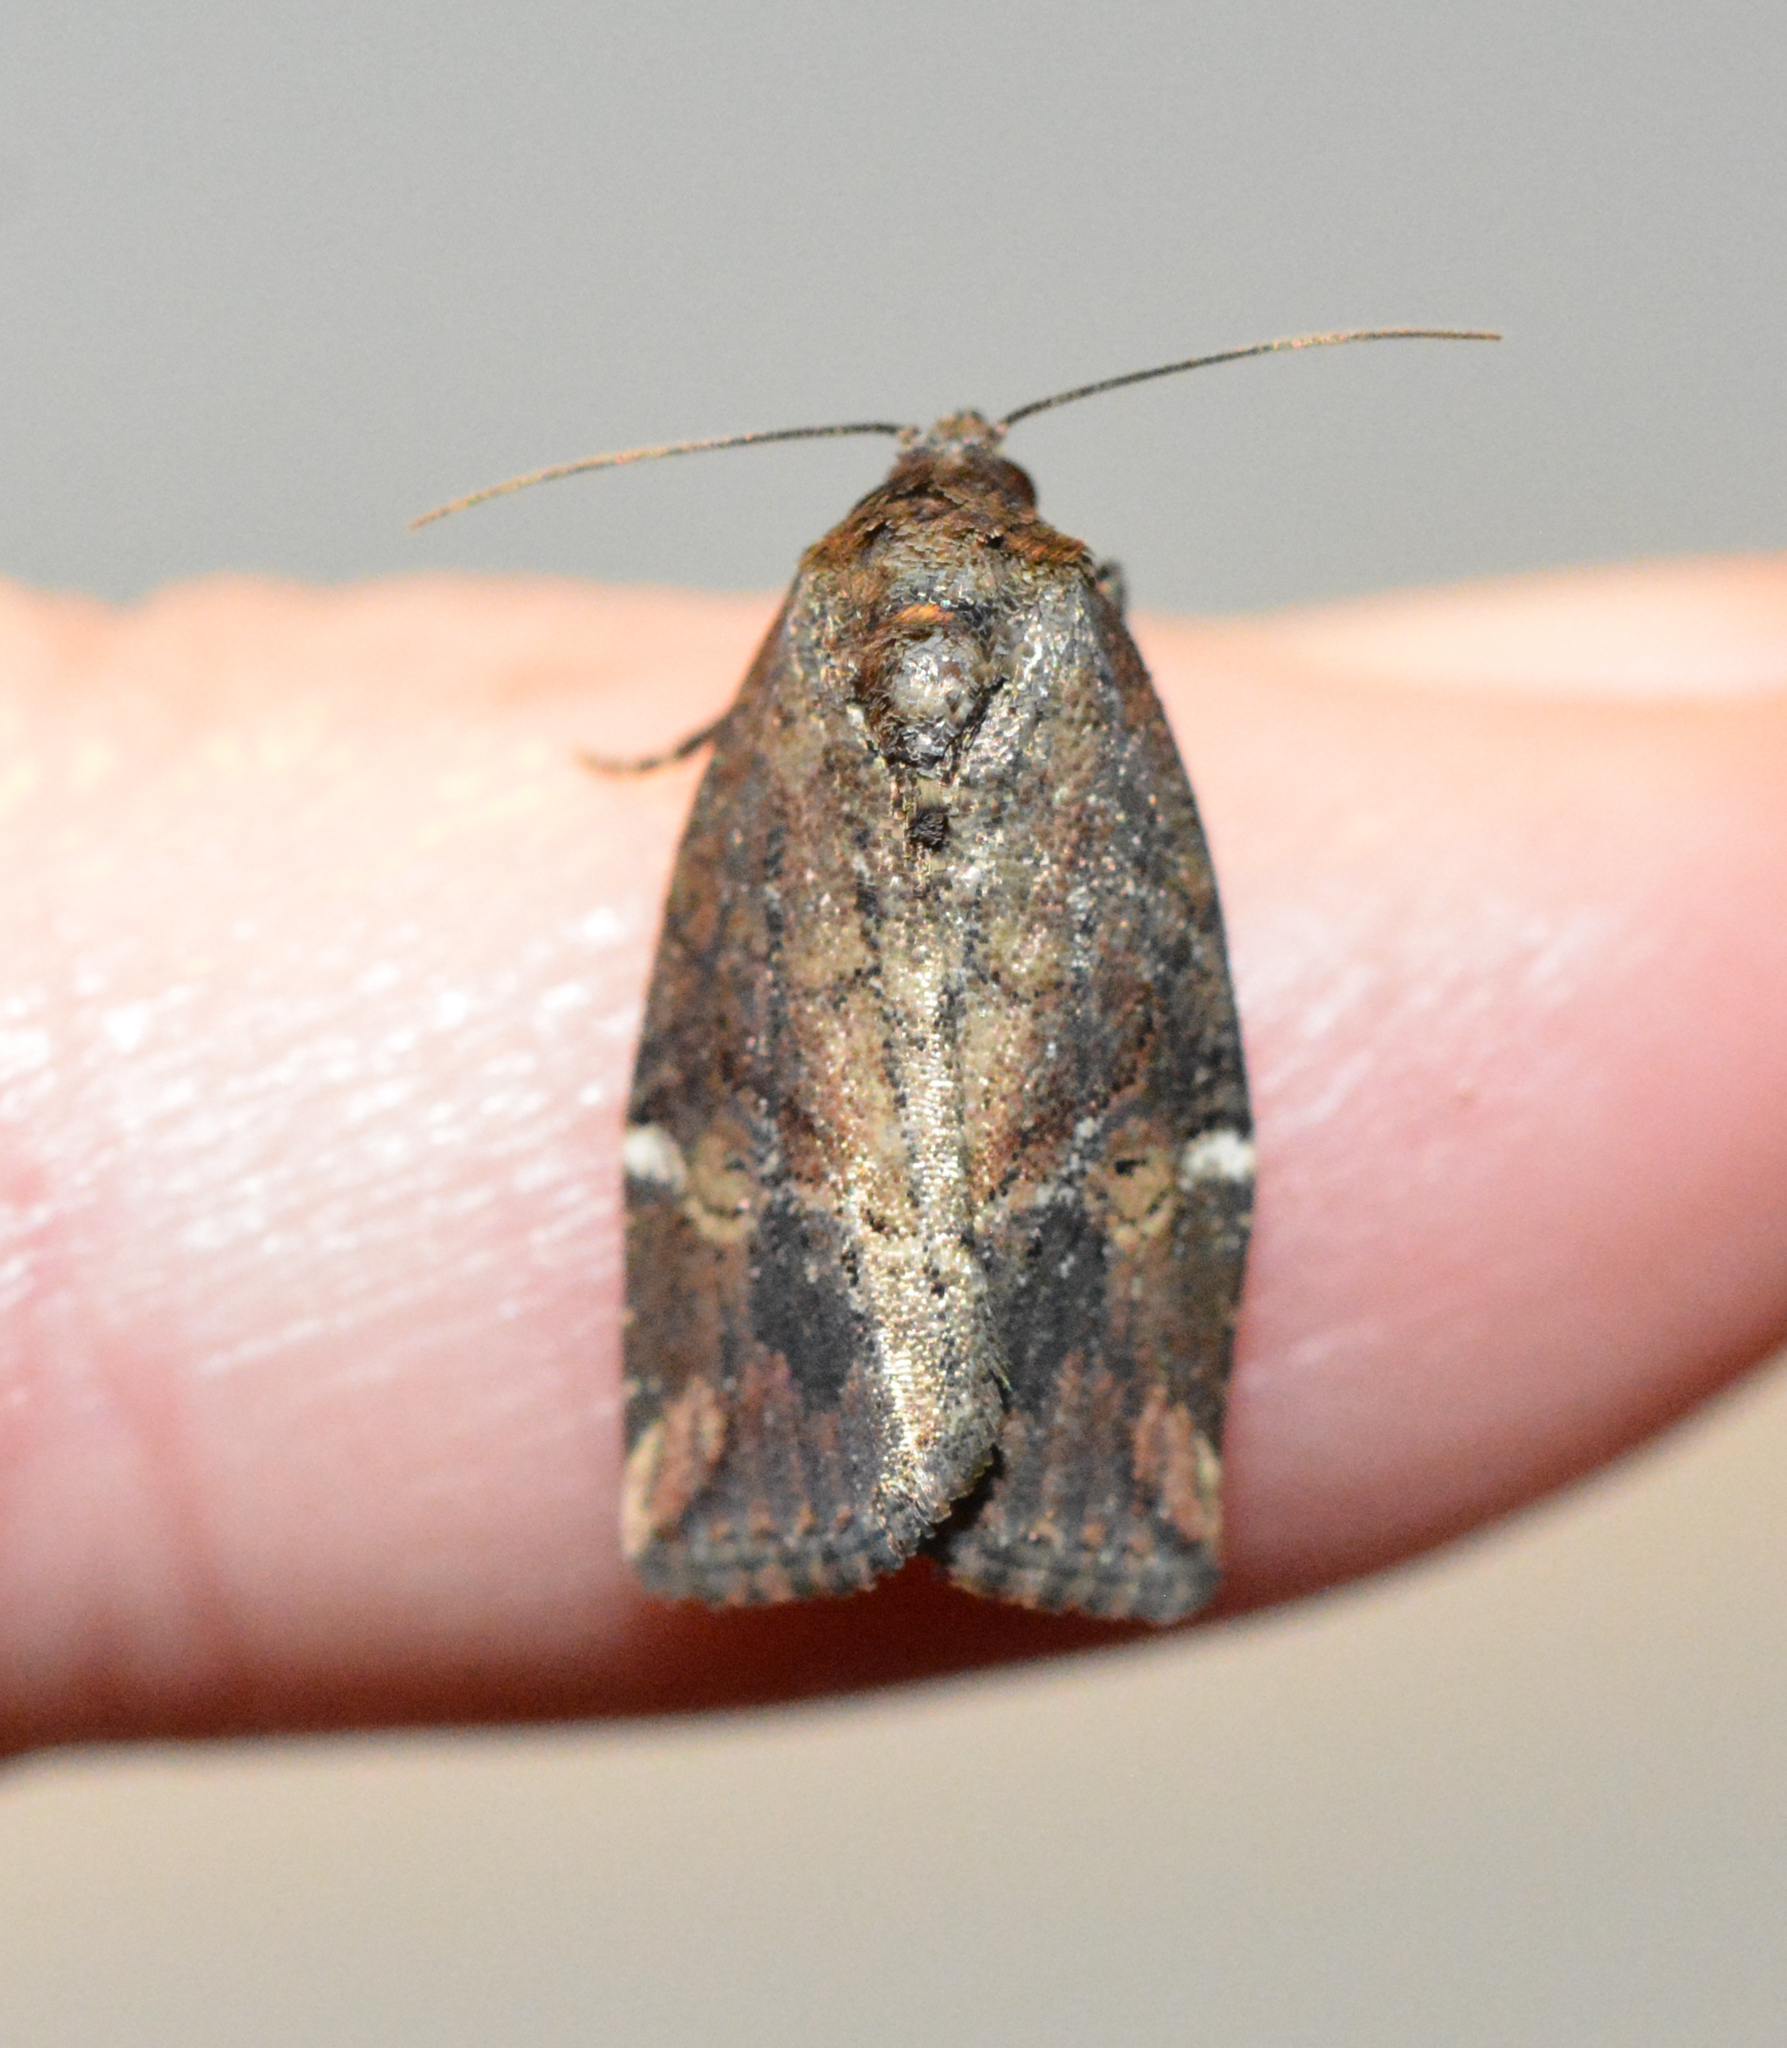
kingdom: Animalia
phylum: Arthropoda
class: Insecta
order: Lepidoptera
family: Noctuidae
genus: Elaphria
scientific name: Elaphria versicolor
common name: Fir harlequin
